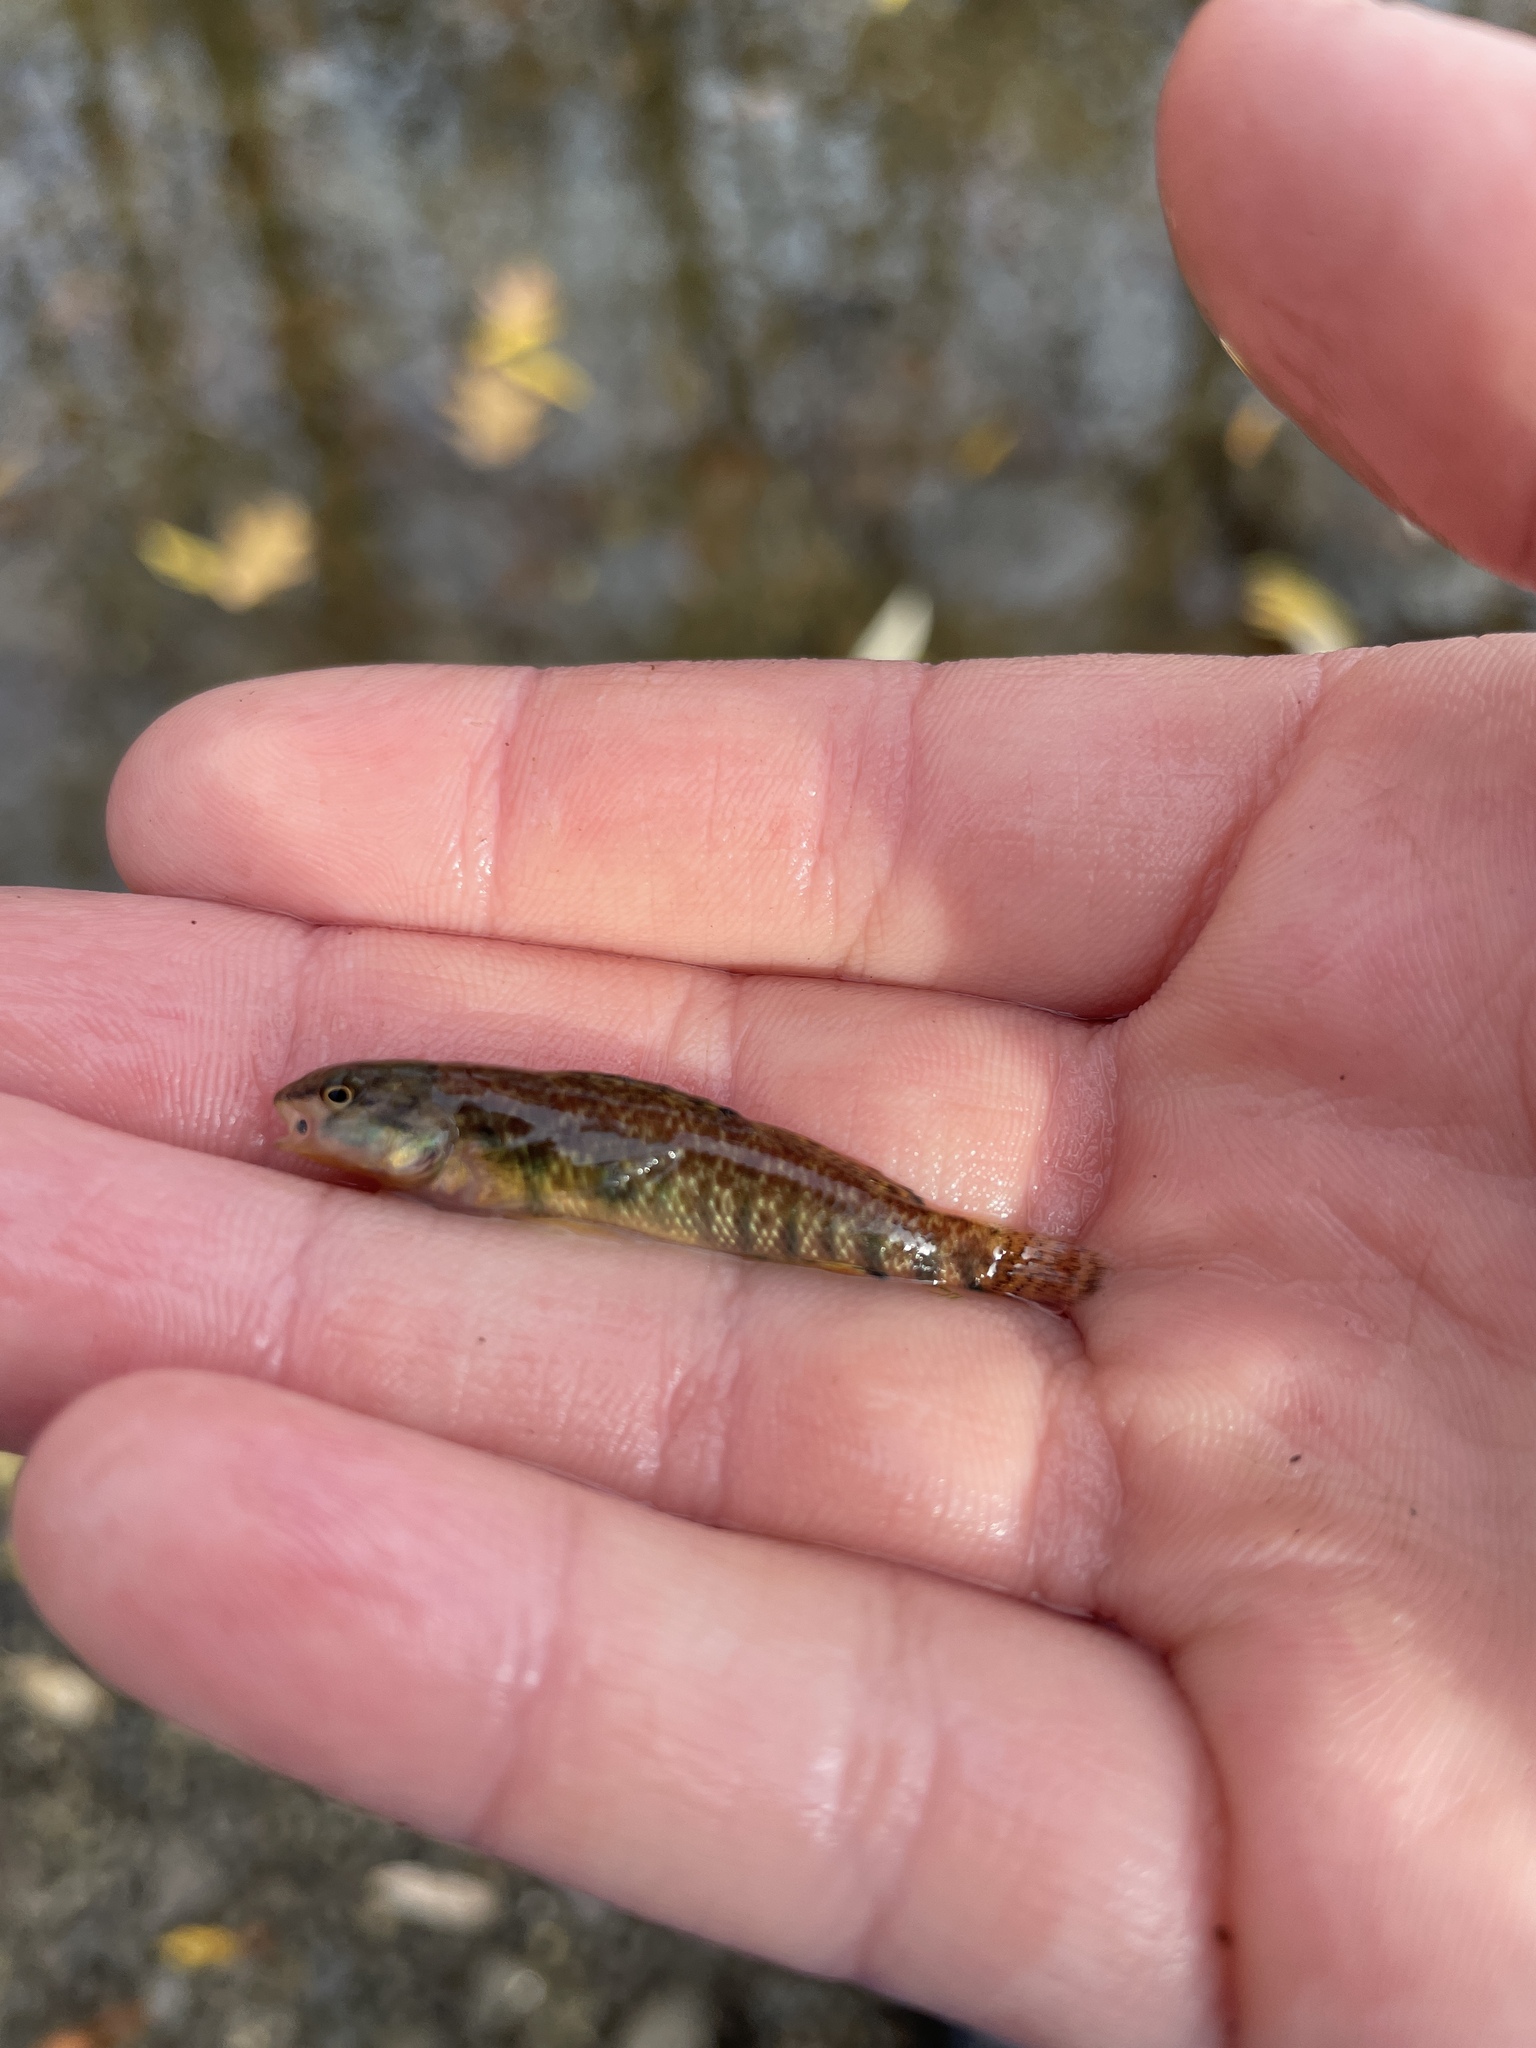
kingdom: Animalia
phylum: Chordata
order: Perciformes
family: Percidae
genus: Etheostoma
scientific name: Etheostoma caeruleum
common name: Rainbow darter
